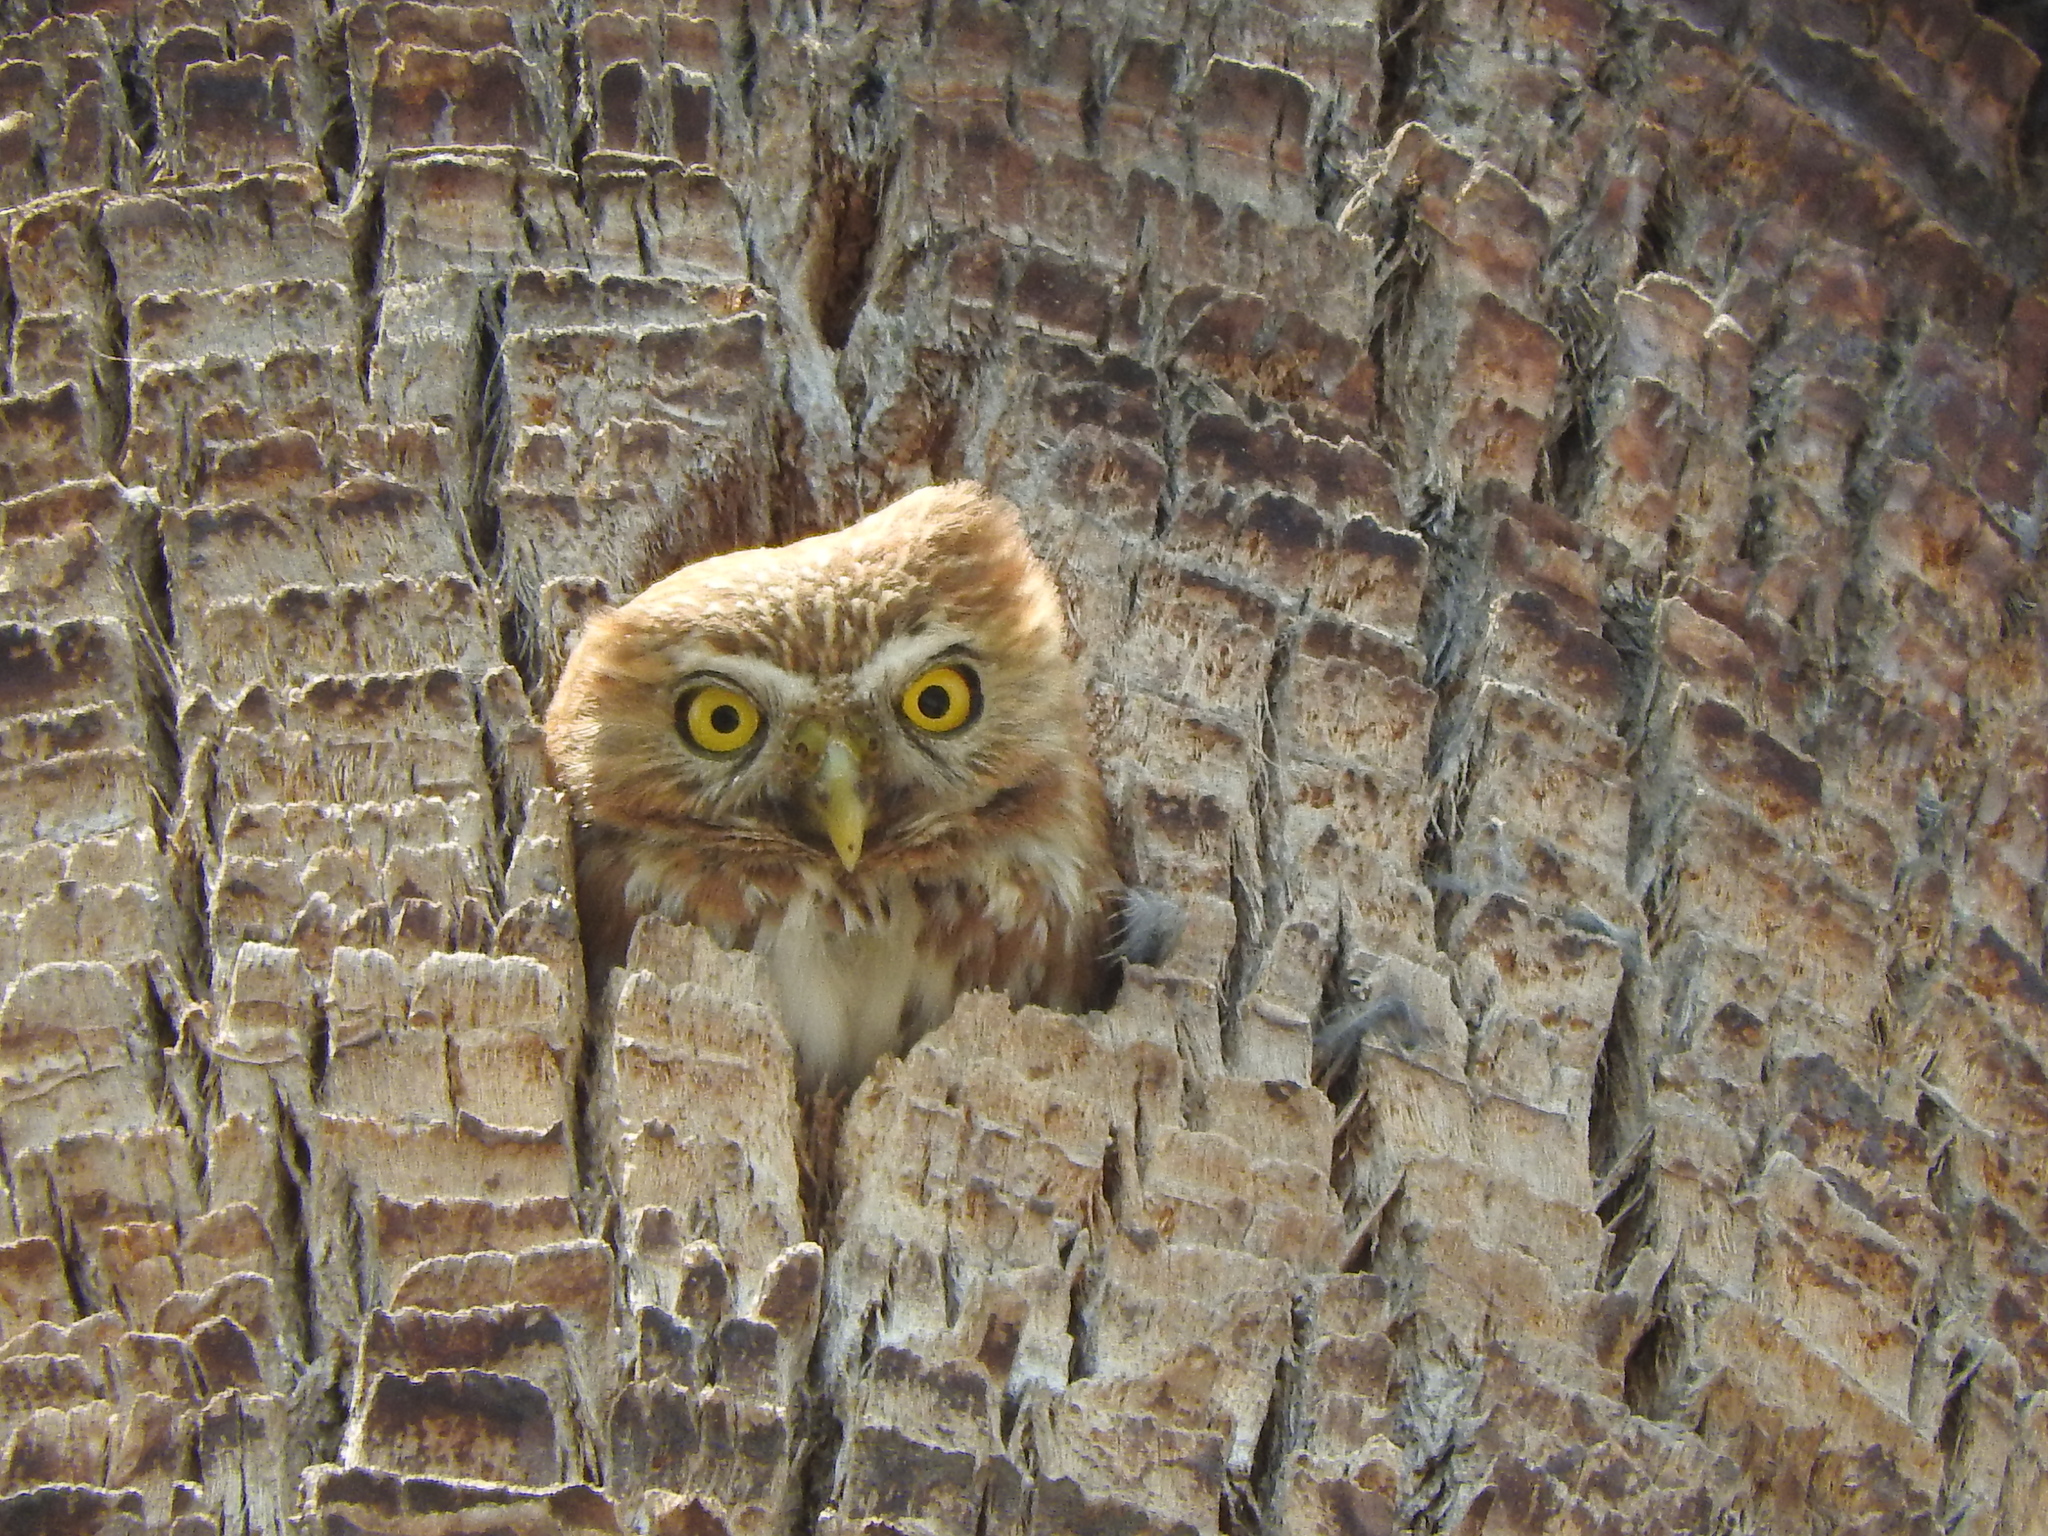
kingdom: Animalia
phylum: Chordata
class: Aves
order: Strigiformes
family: Strigidae
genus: Glaucidium
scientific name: Glaucidium brasilianum
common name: Ferruginous pygmy-owl
